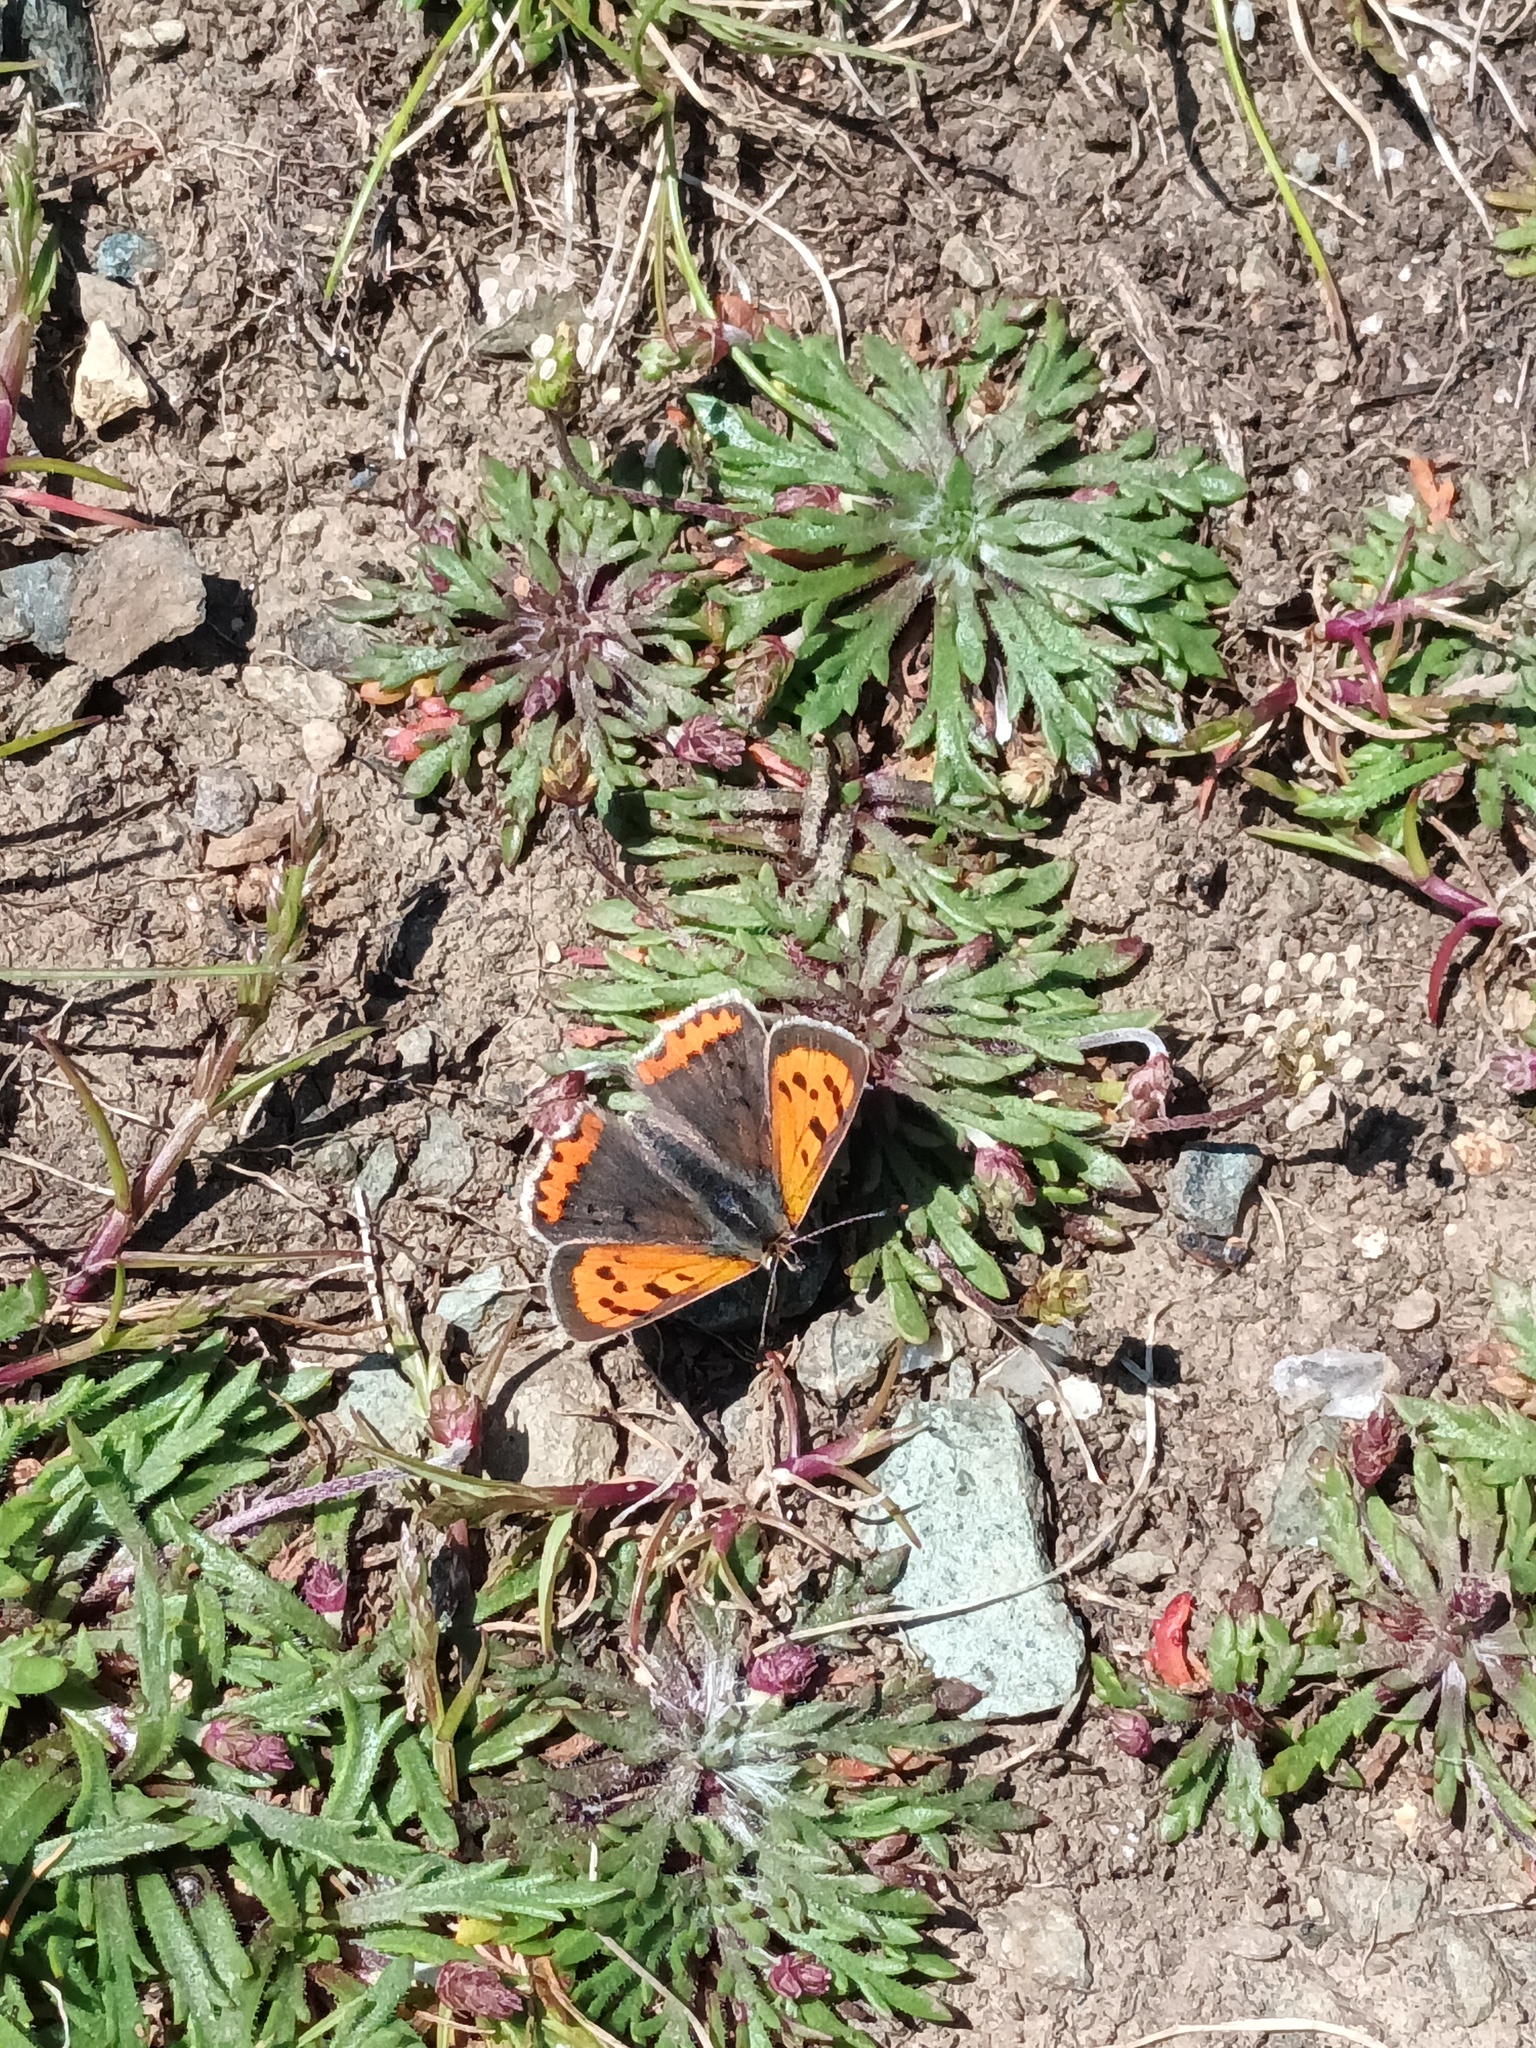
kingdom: Animalia
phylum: Arthropoda
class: Insecta
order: Lepidoptera
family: Lycaenidae
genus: Lycaena
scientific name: Lycaena phlaeas
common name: Small copper
